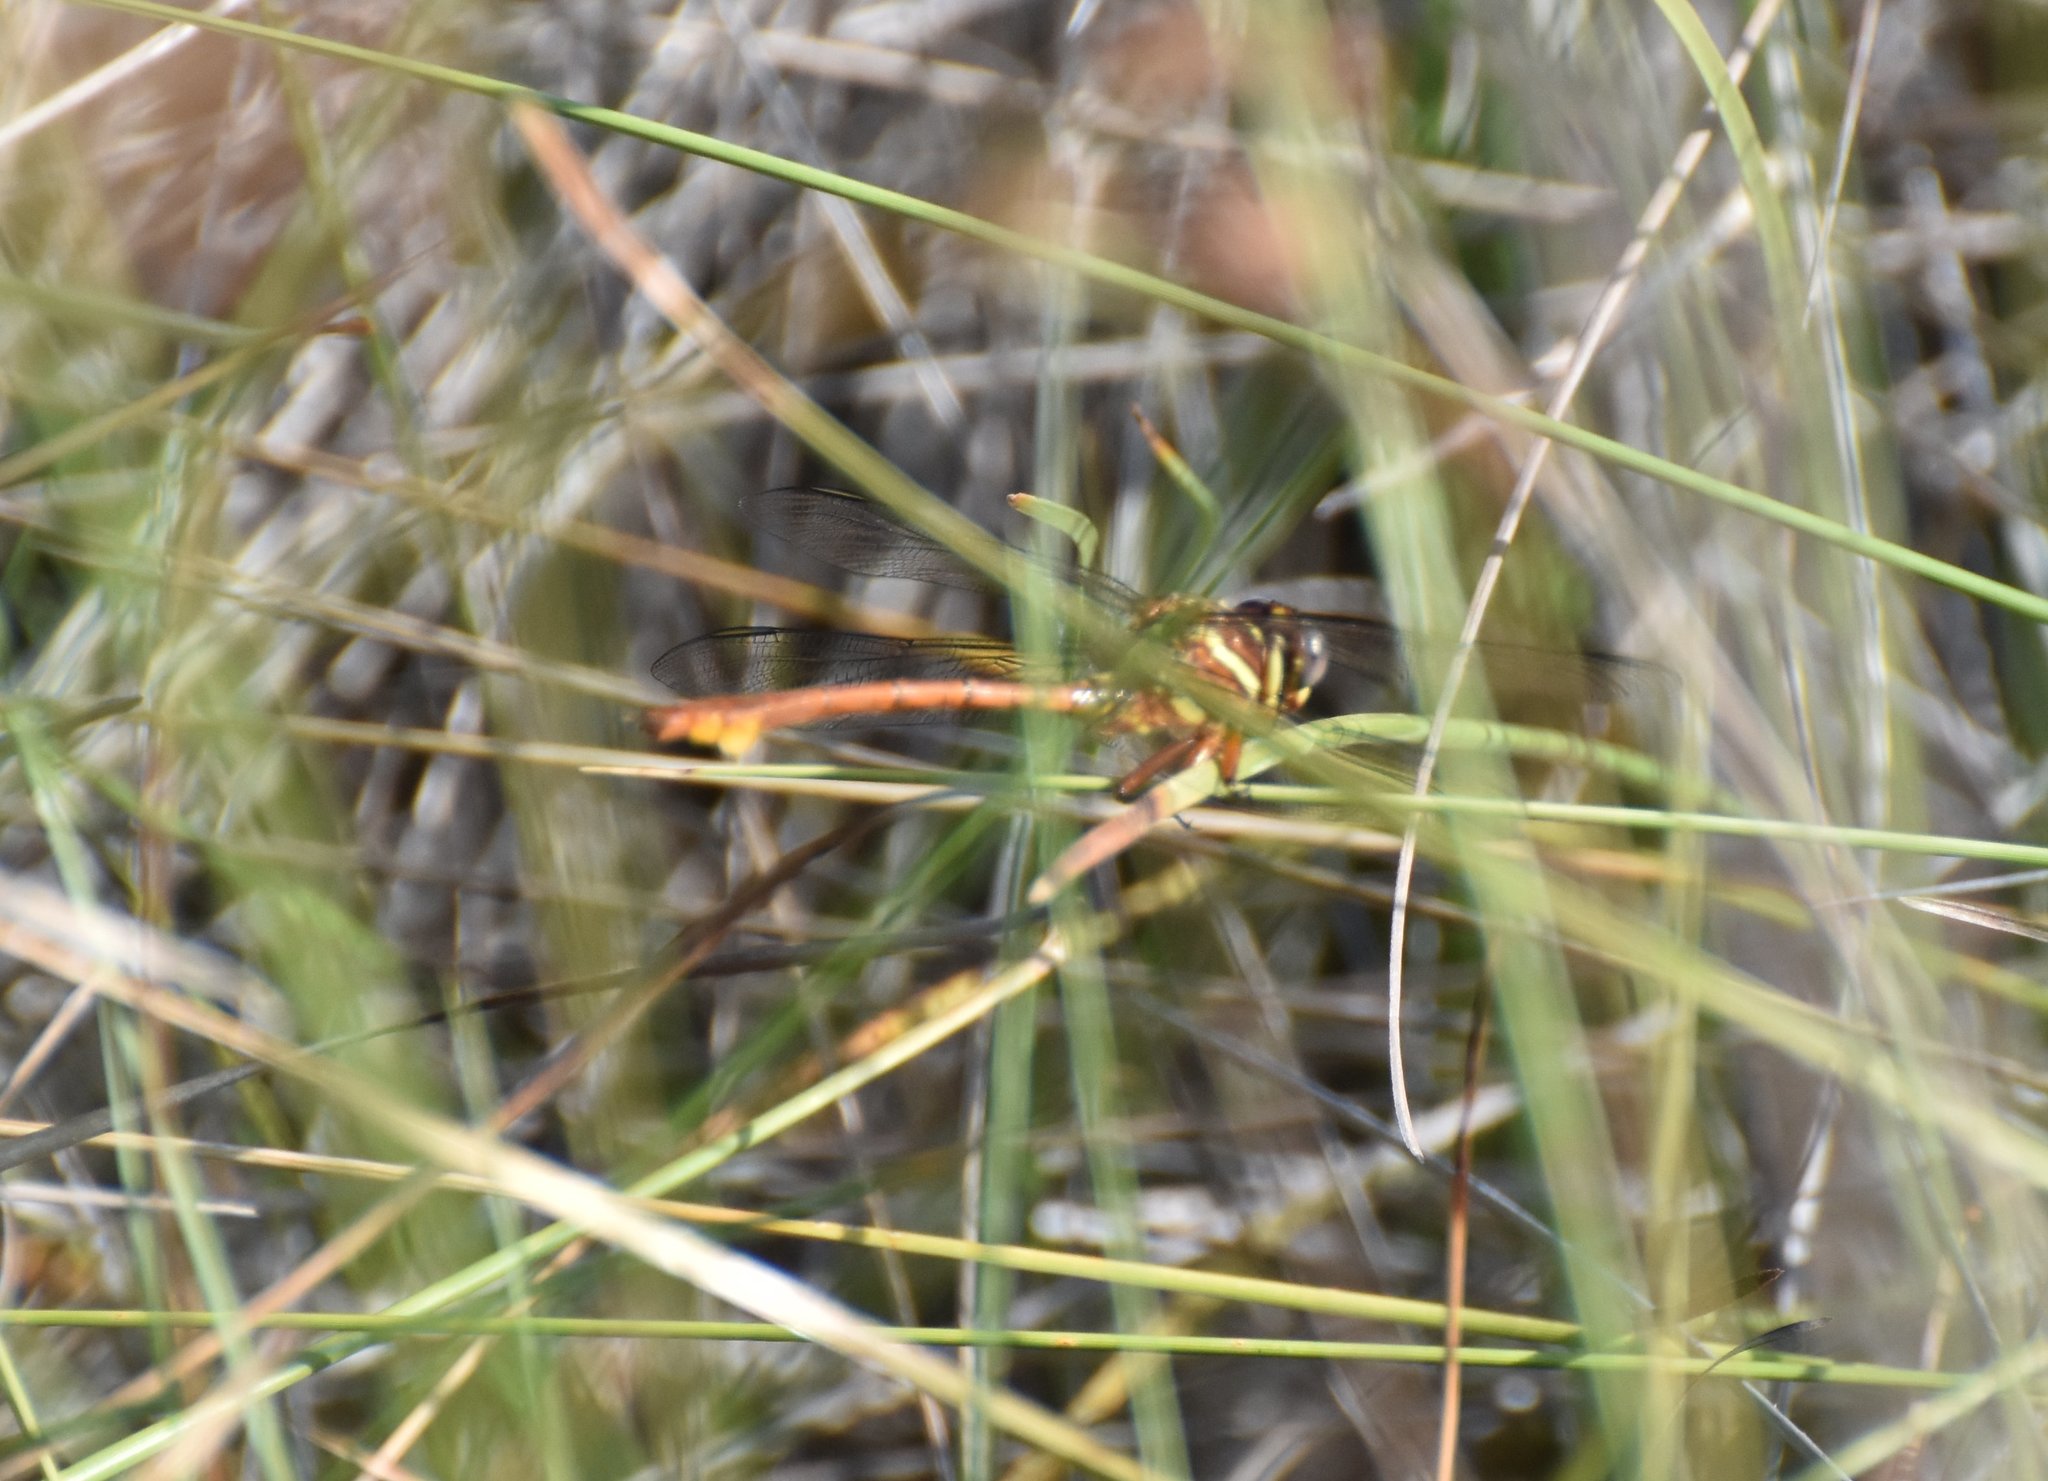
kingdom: Animalia
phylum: Arthropoda
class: Insecta
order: Odonata
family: Gomphidae
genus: Aphylla
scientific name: Aphylla williamsoni
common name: Two-striped forceptail
